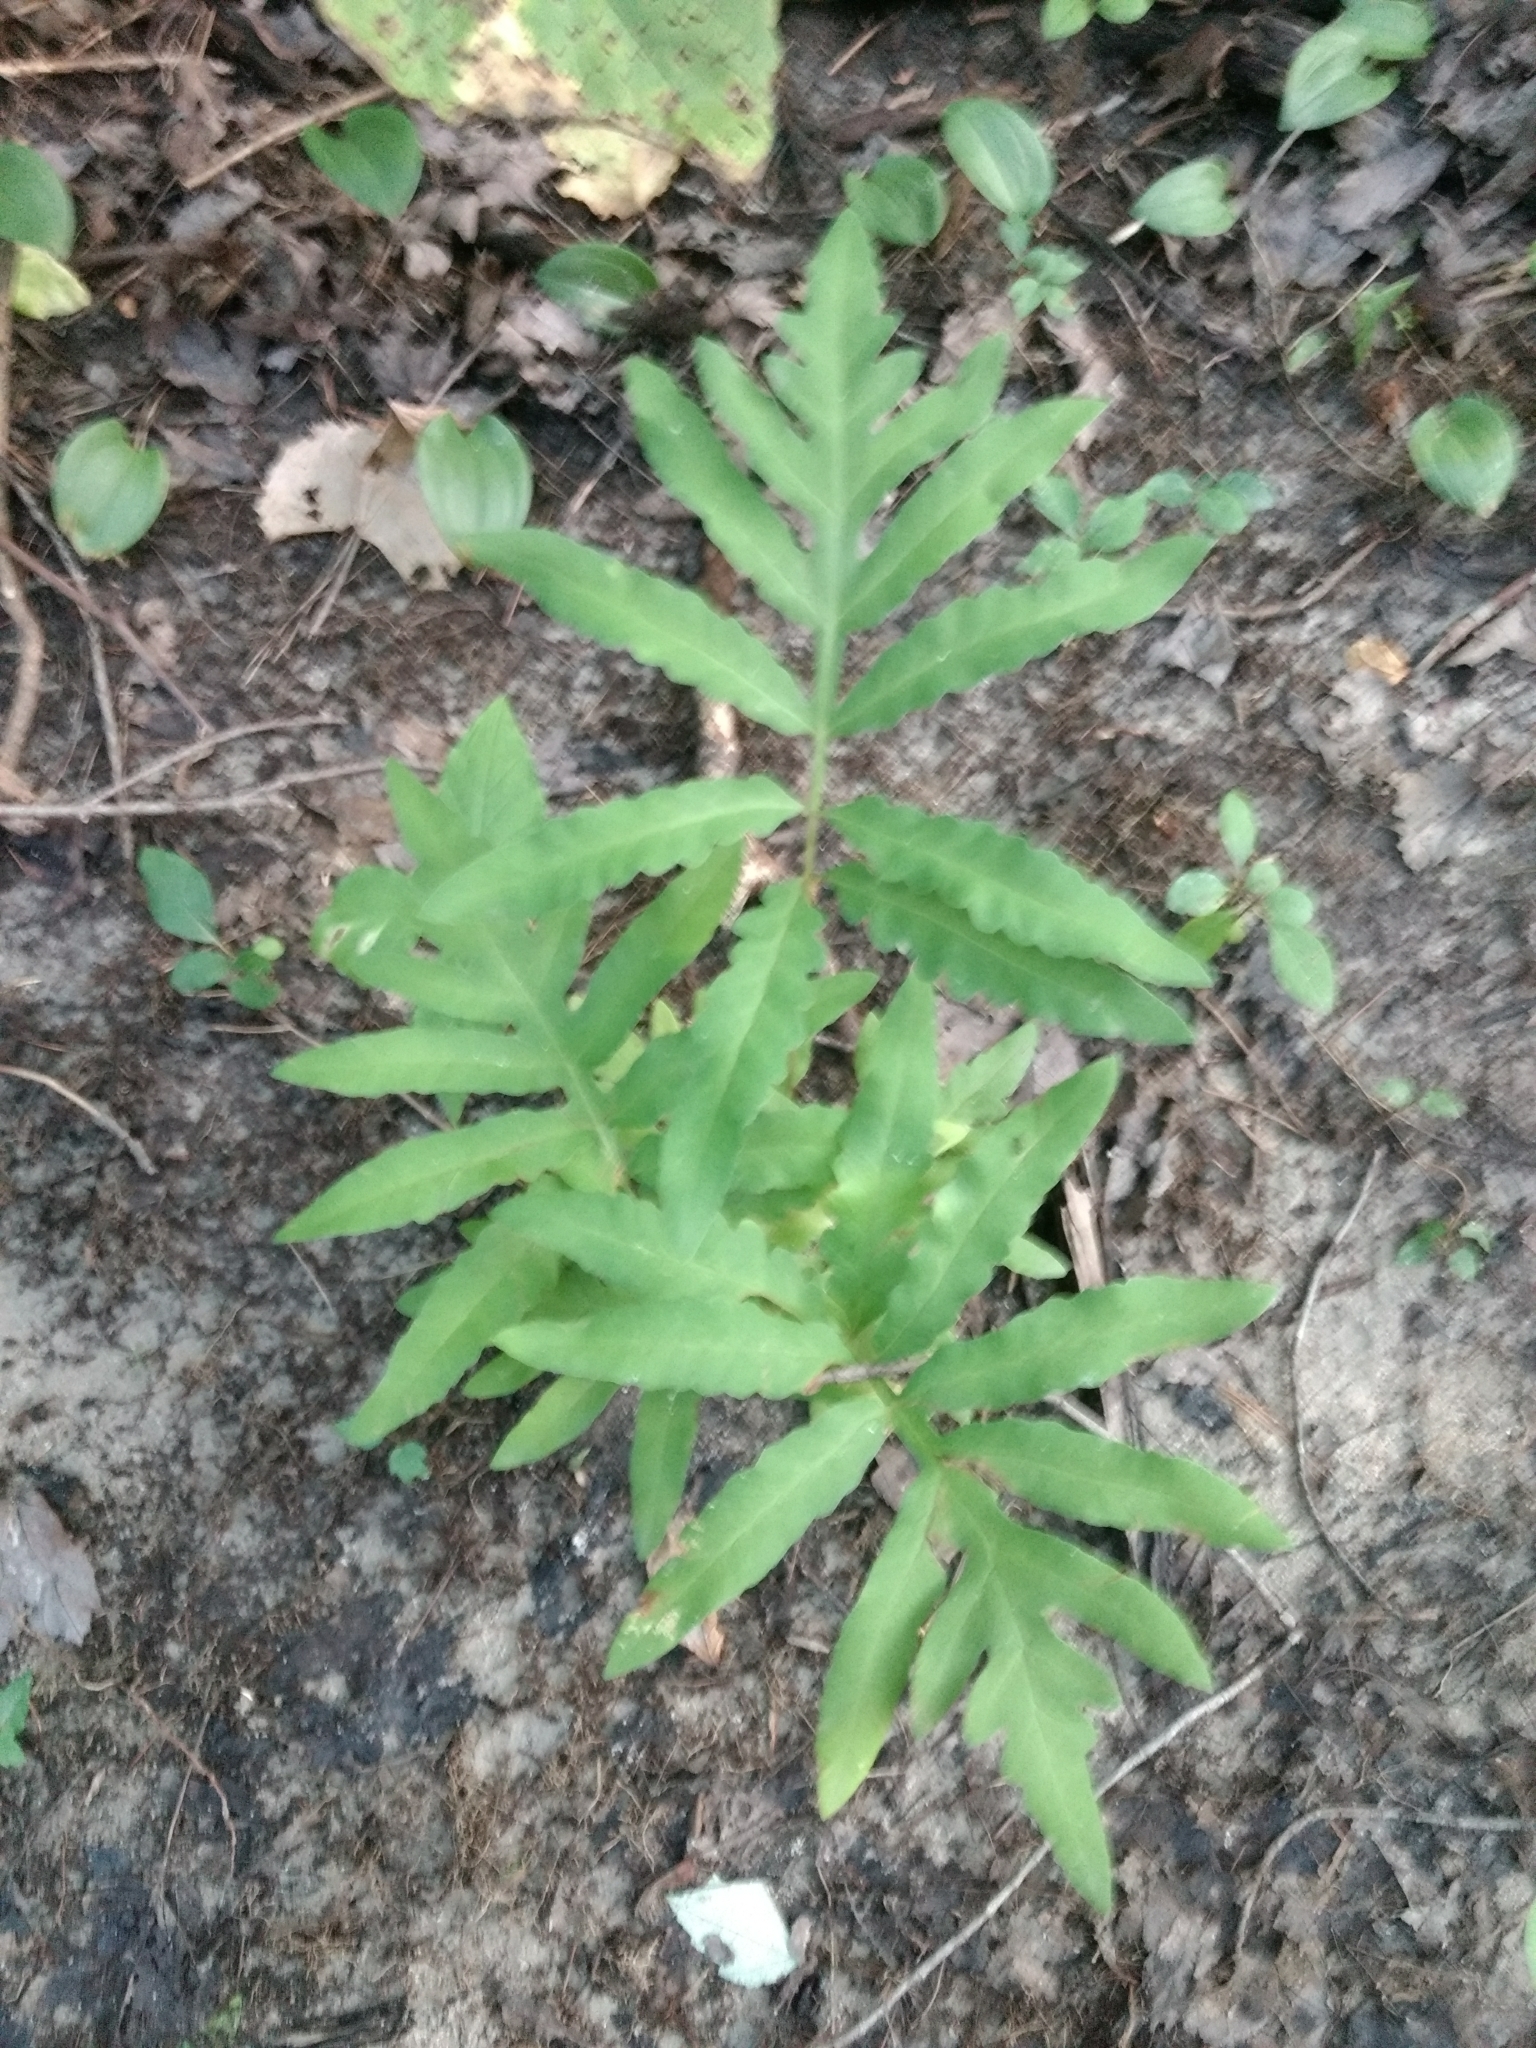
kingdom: Plantae
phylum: Tracheophyta
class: Polypodiopsida
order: Polypodiales
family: Onocleaceae
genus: Onoclea
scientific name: Onoclea sensibilis
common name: Sensitive fern
